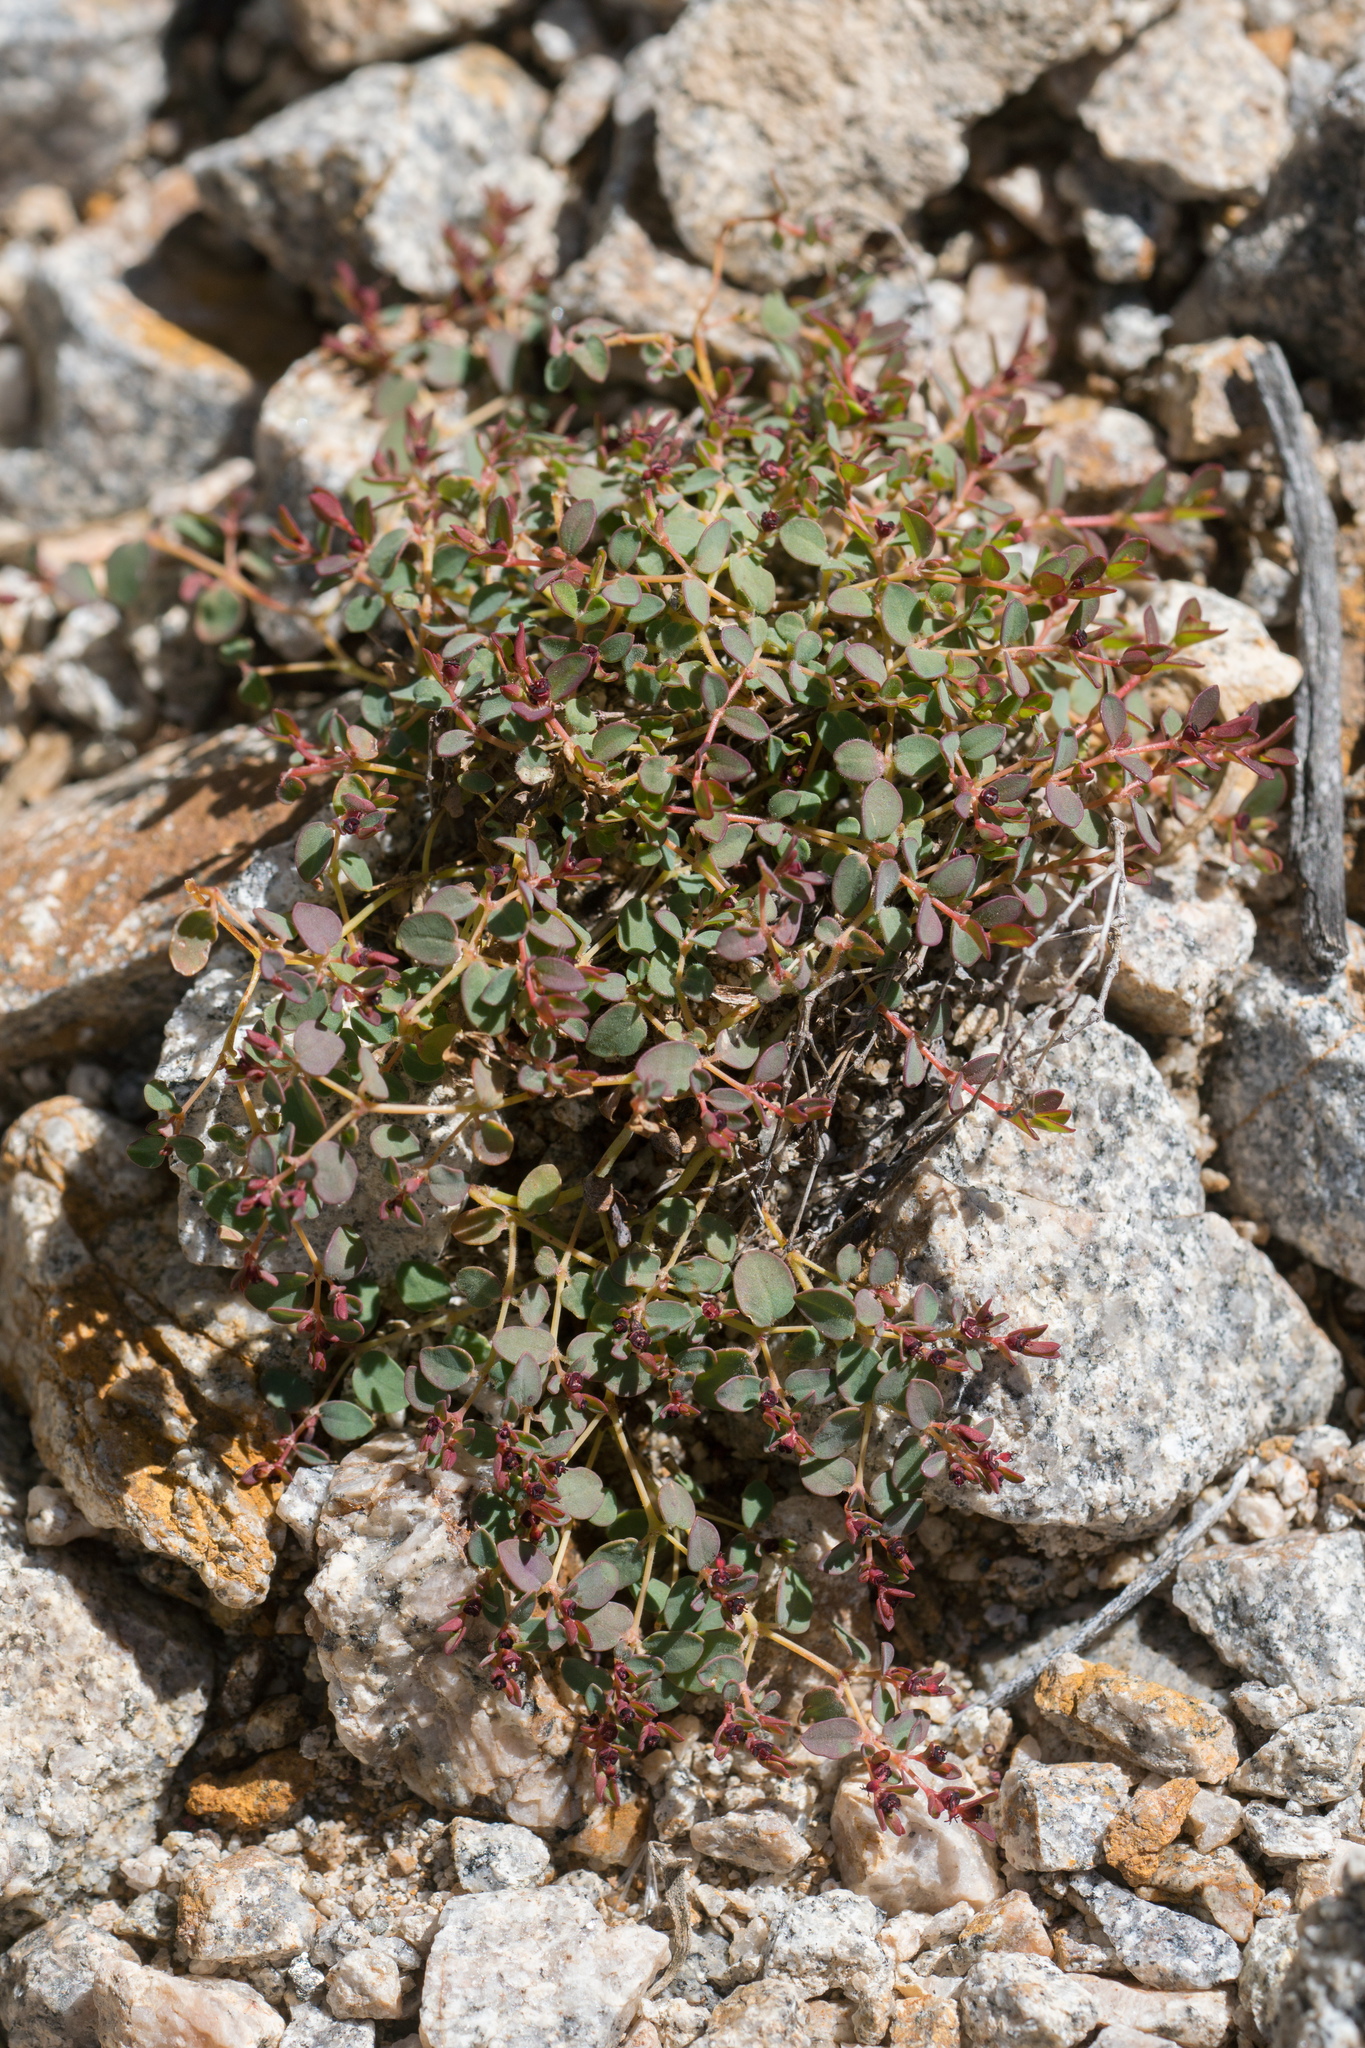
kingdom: Plantae
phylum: Tracheophyta
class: Magnoliopsida
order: Malpighiales
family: Euphorbiaceae
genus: Euphorbia
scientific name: Euphorbia polycarpa
